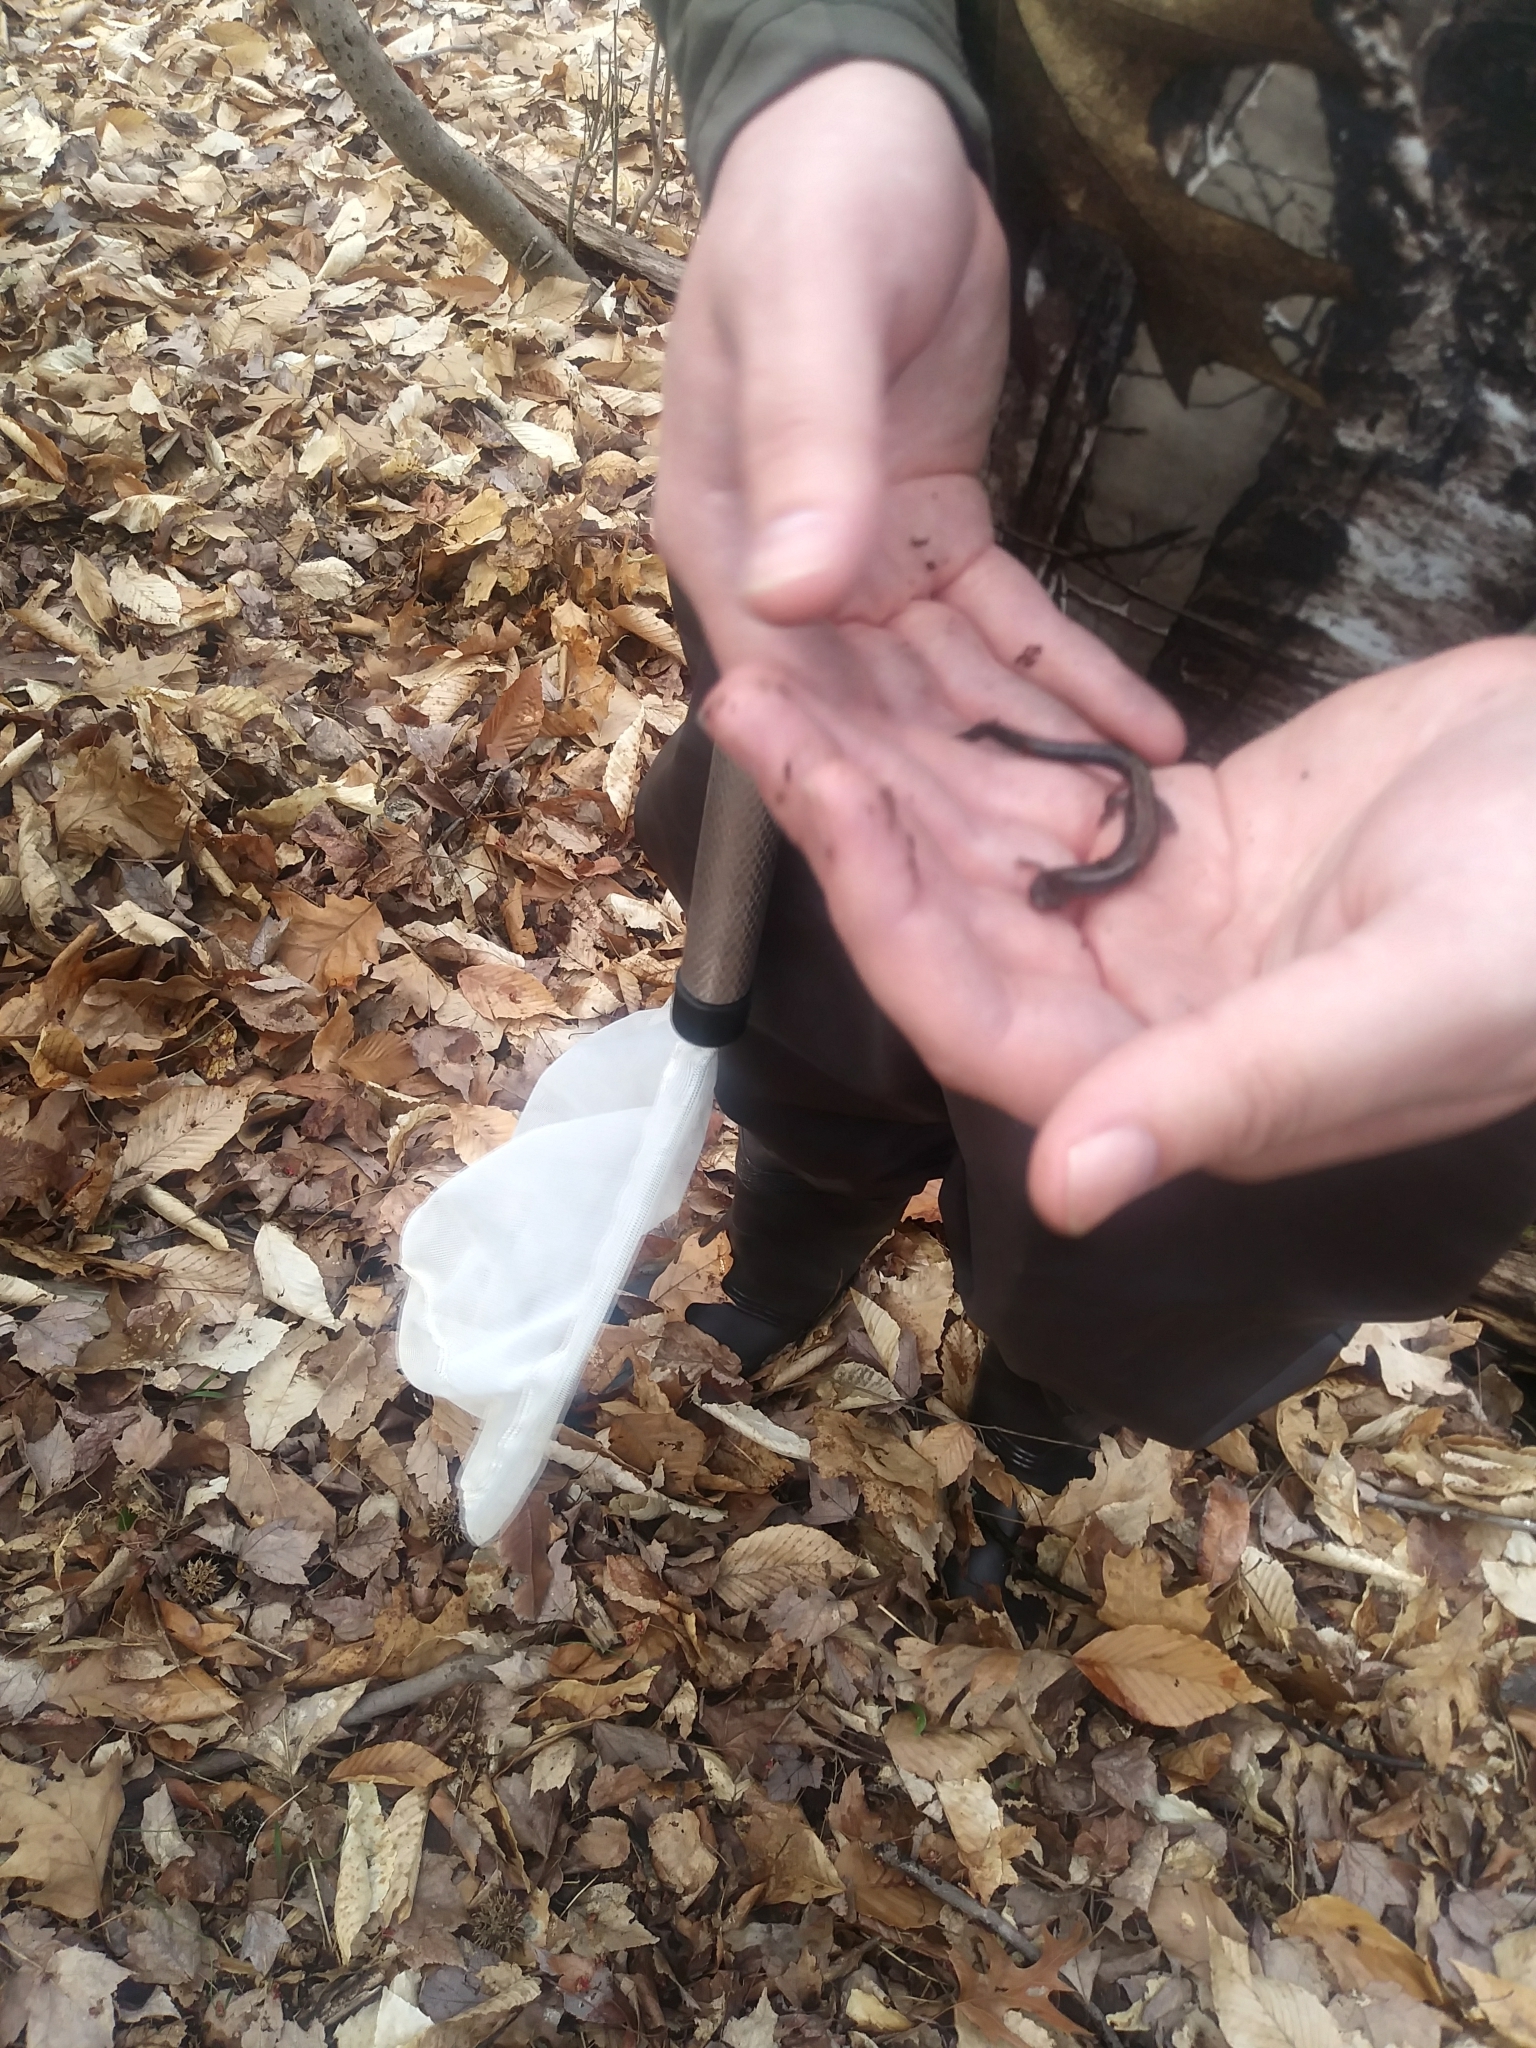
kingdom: Animalia
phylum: Chordata
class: Amphibia
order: Caudata
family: Plethodontidae
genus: Plethodon
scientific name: Plethodon cinereus
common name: Redback salamander
